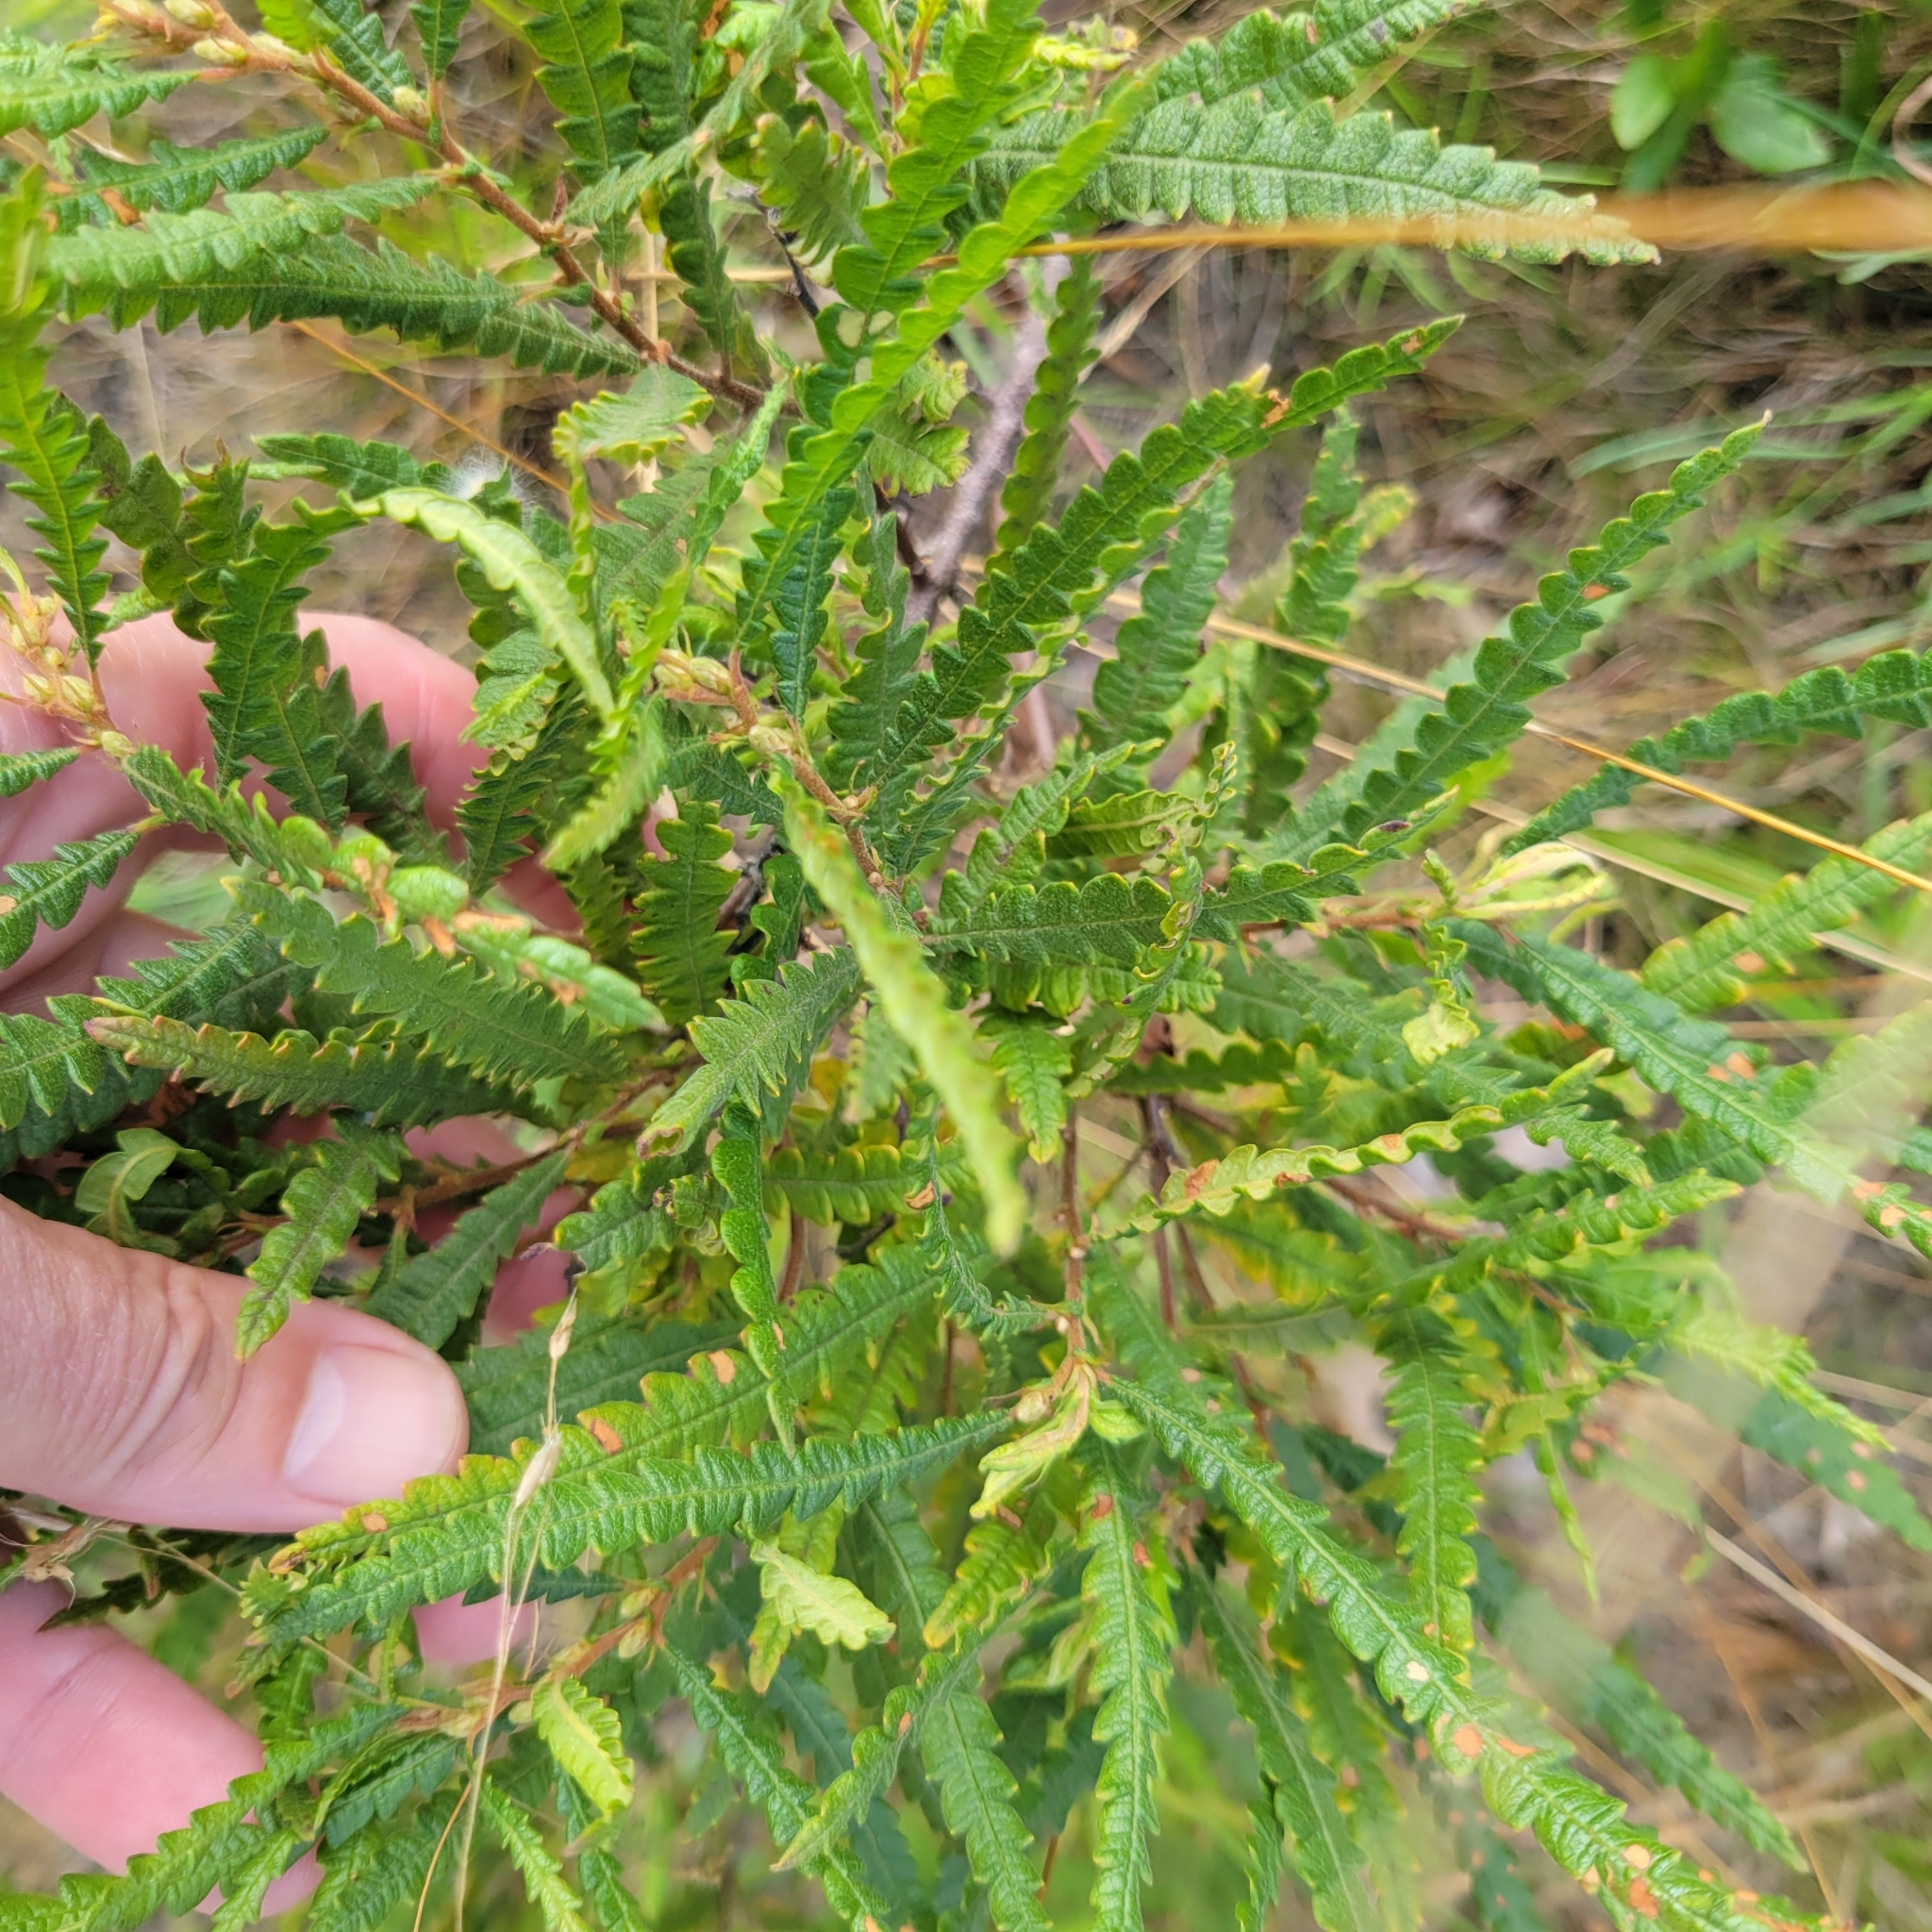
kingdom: Plantae
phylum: Tracheophyta
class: Magnoliopsida
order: Fagales
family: Myricaceae
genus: Comptonia
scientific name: Comptonia peregrina
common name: Sweet-fern
